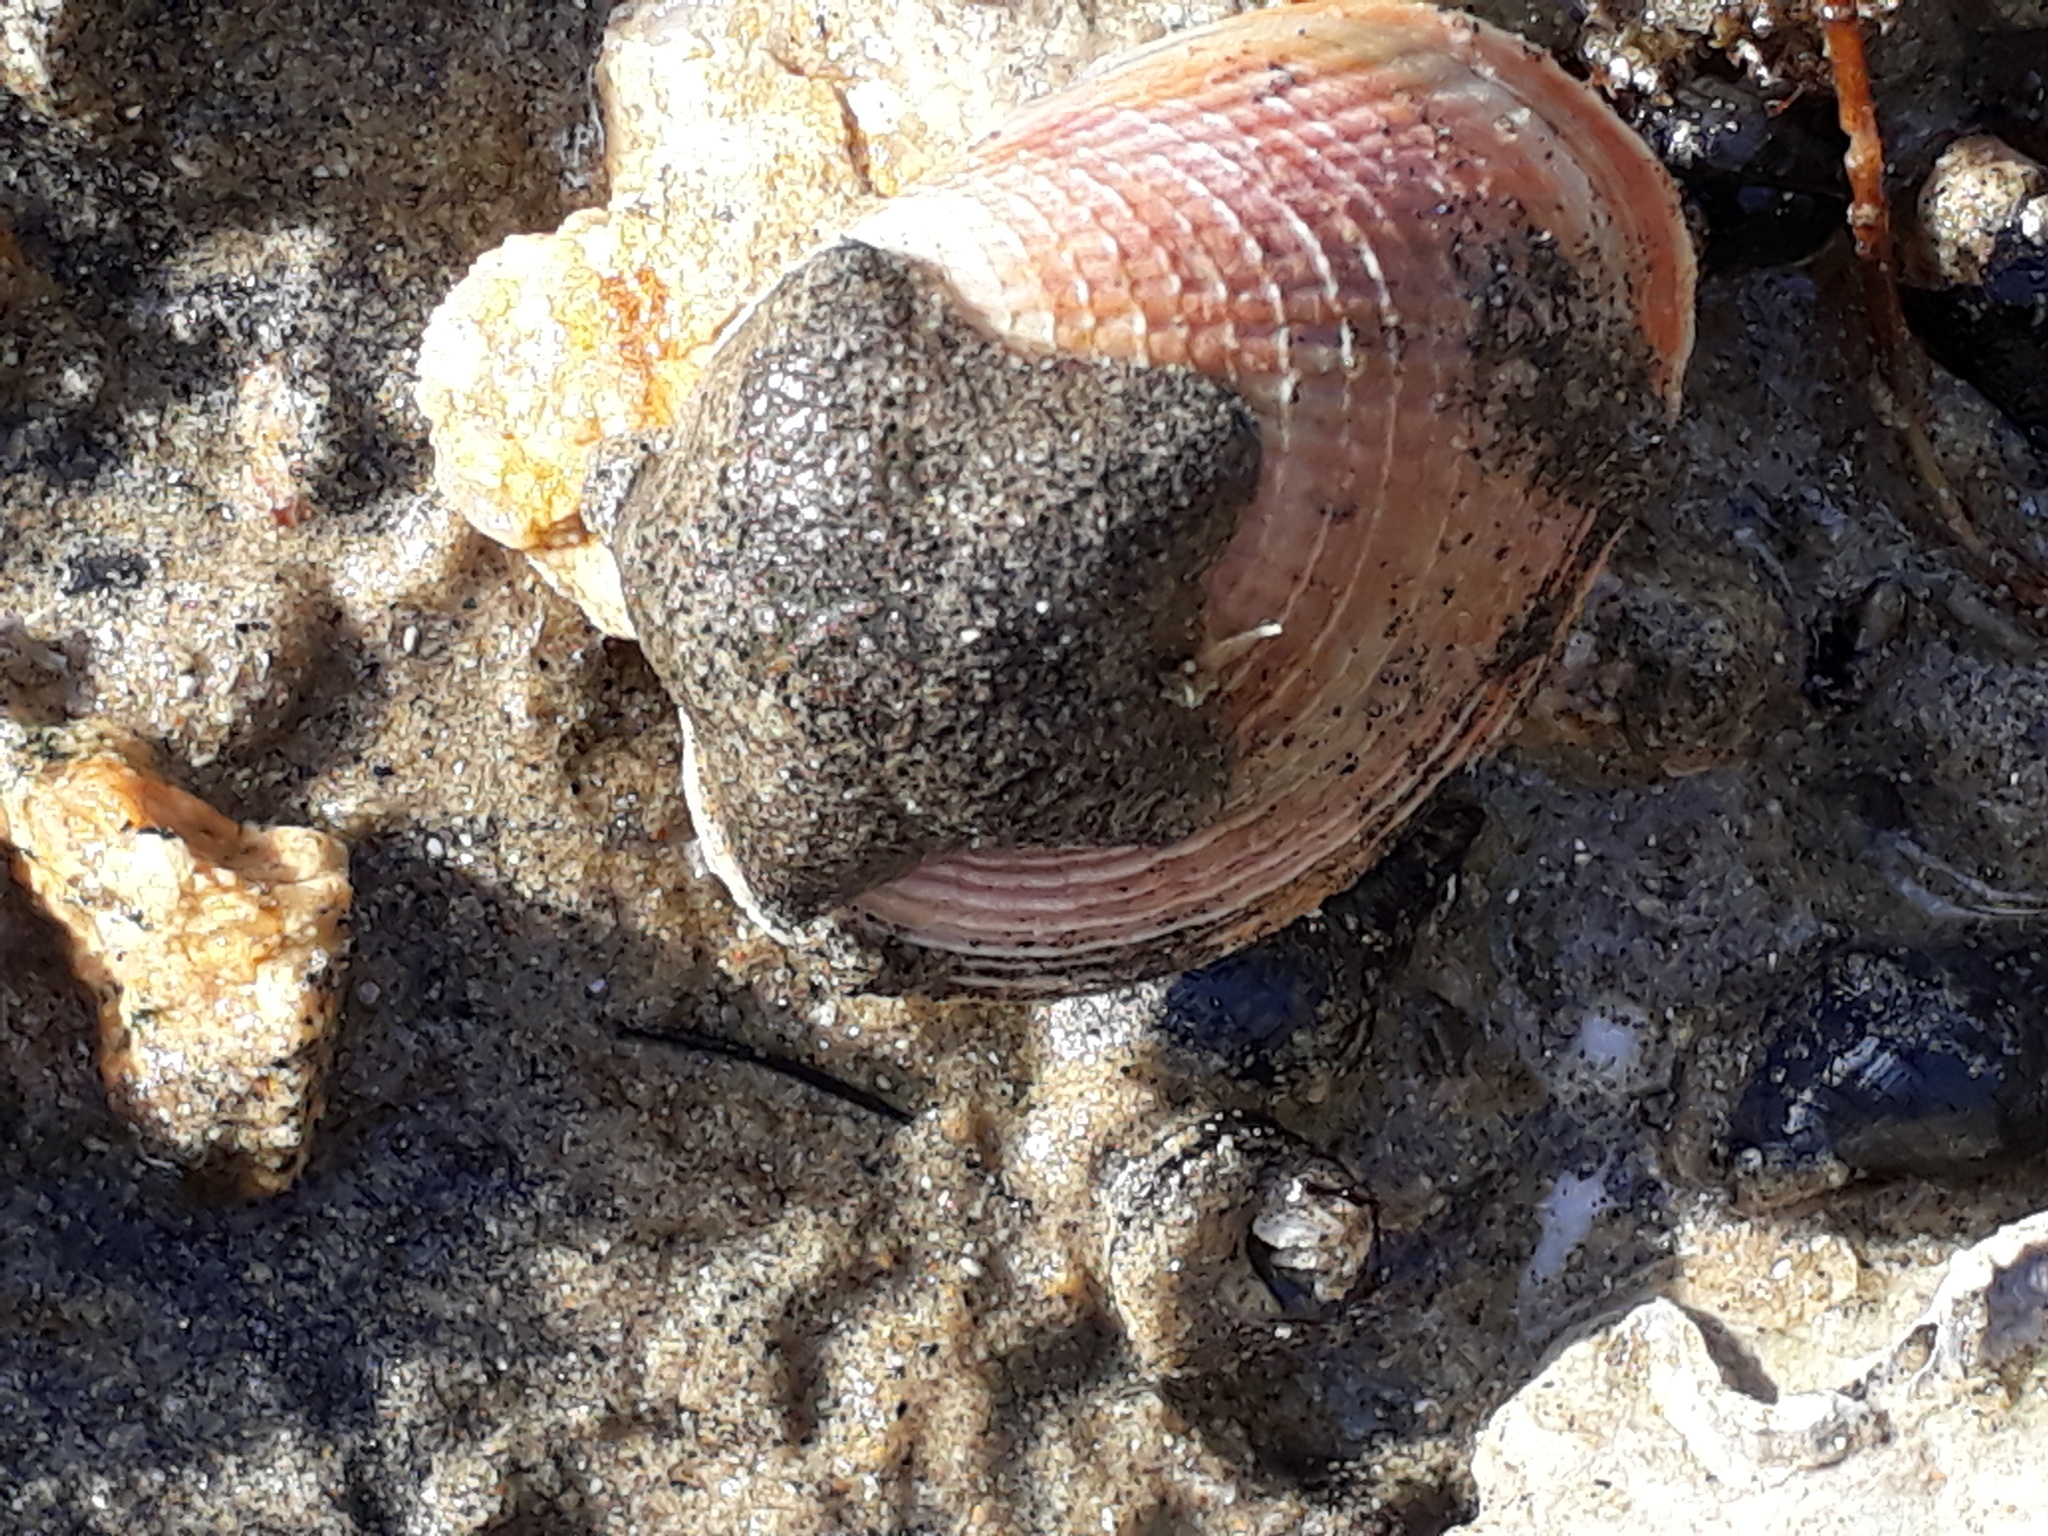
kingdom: Animalia
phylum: Echinodermata
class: Asteroidea
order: Valvatida
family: Asterinidae
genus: Patiriella
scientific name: Patiriella regularis
